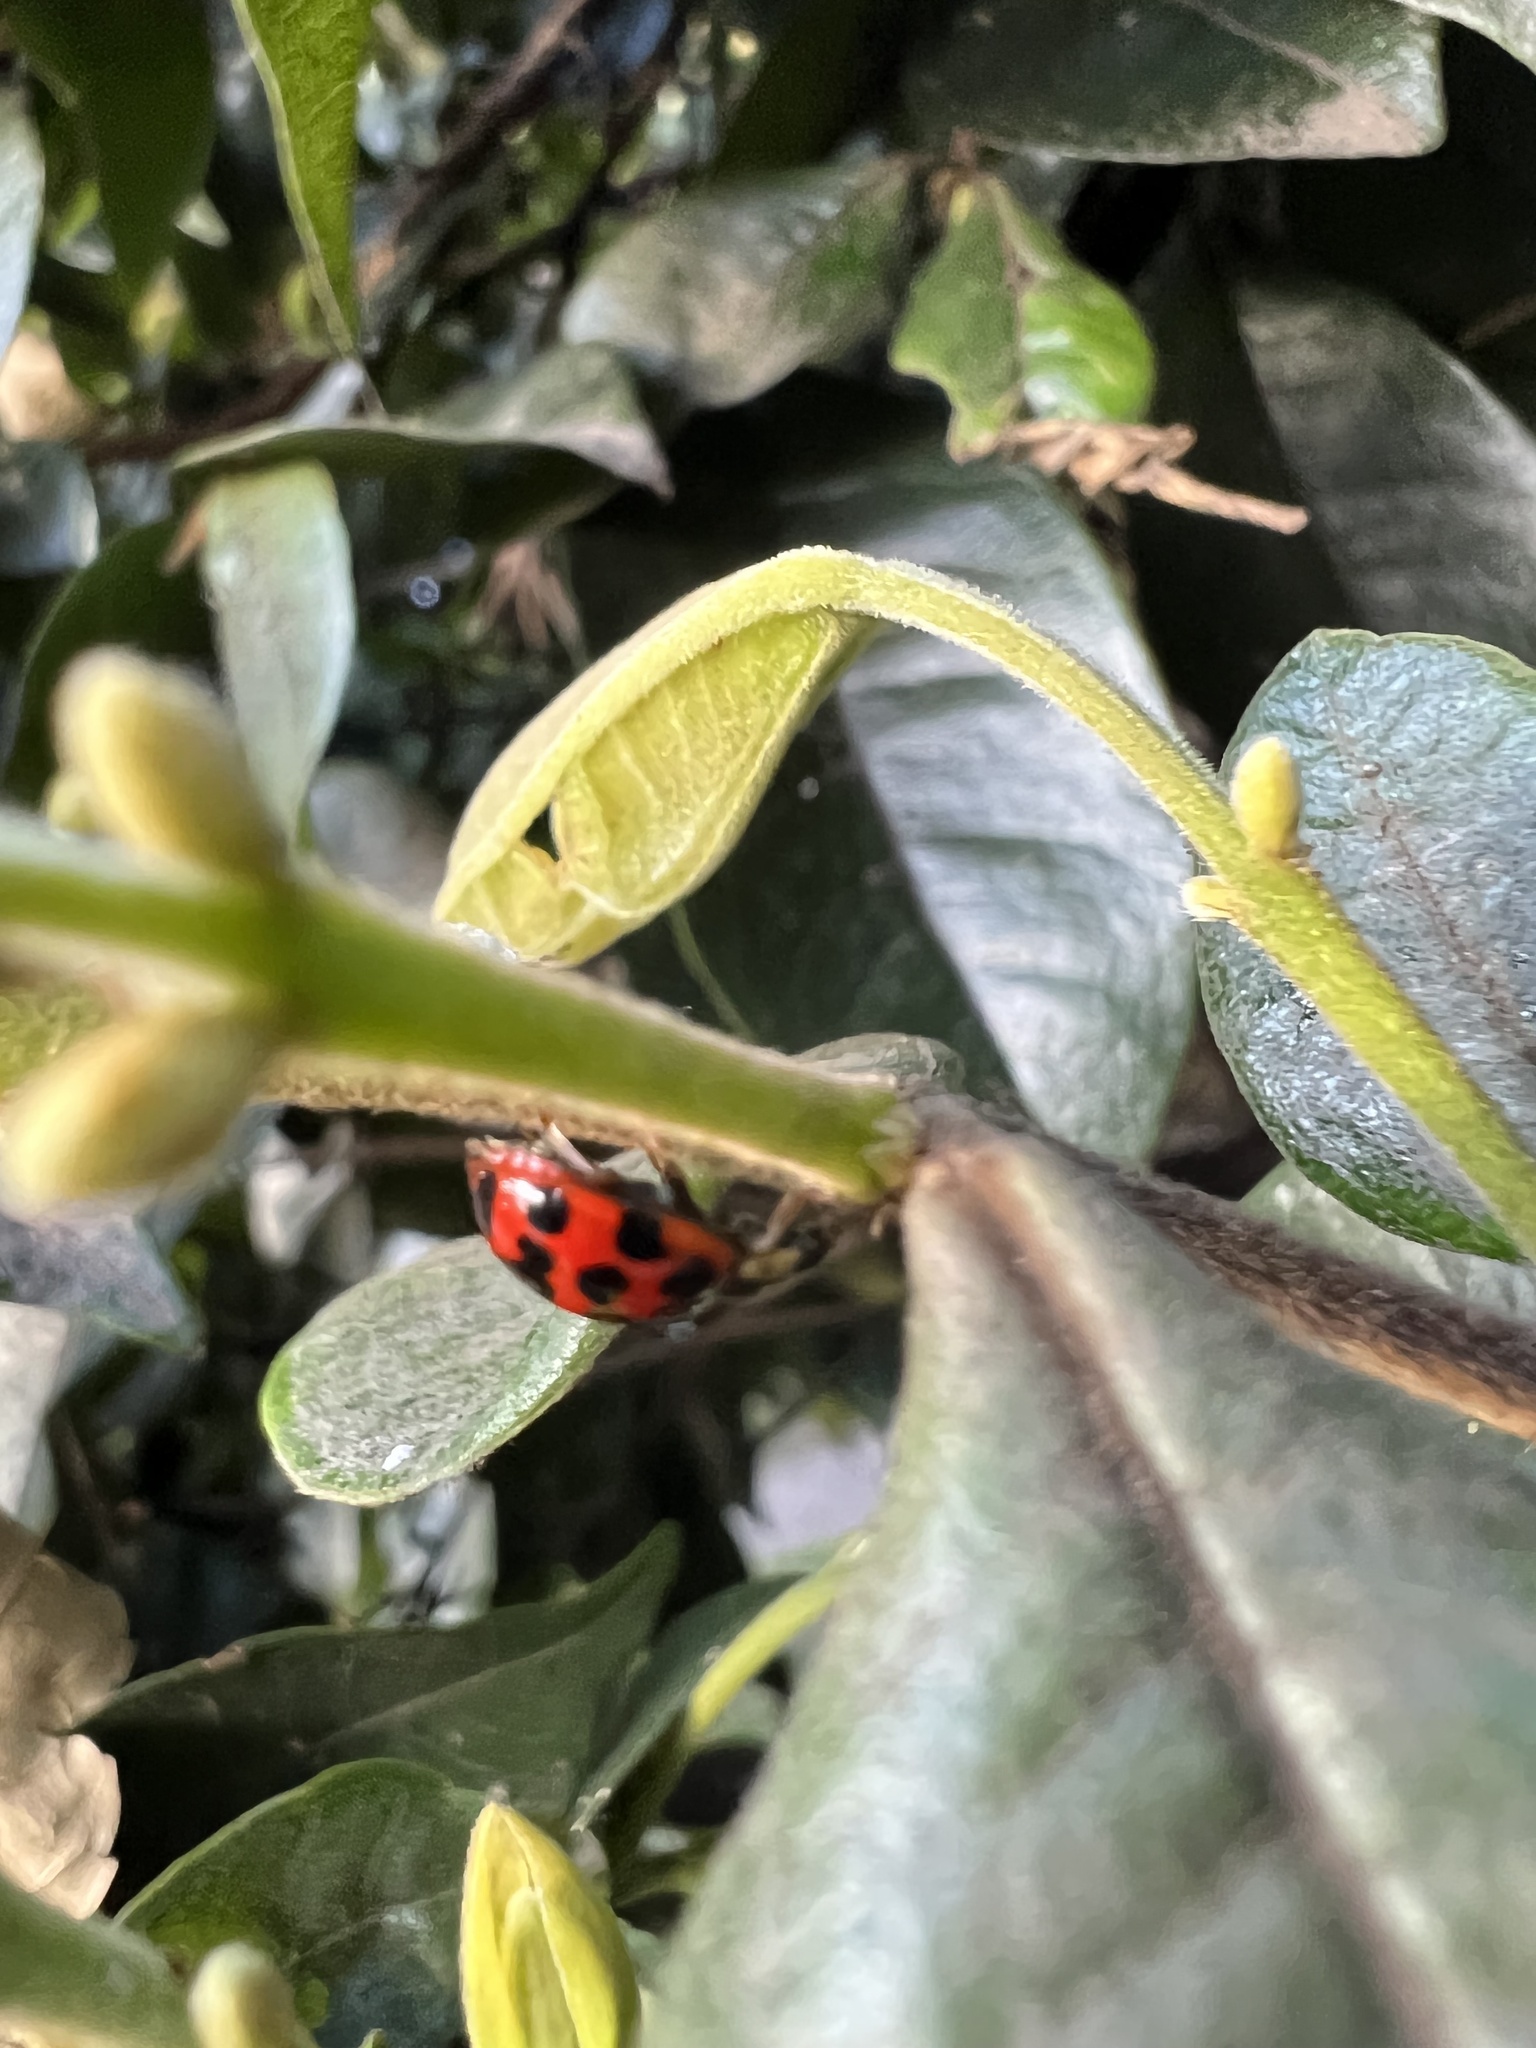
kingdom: Animalia
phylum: Arthropoda
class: Insecta
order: Coleoptera
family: Coccinellidae
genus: Harmonia
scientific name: Harmonia axyridis
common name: Harlequin ladybird
